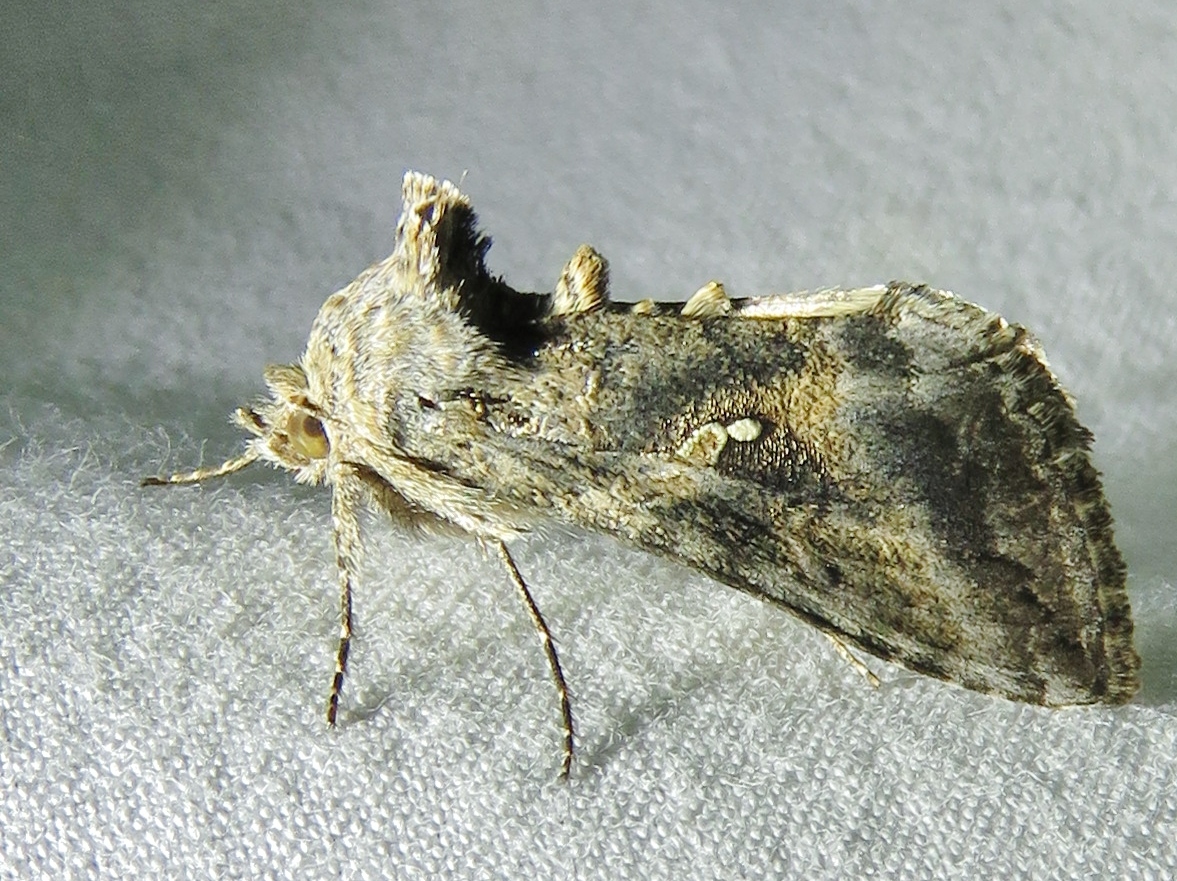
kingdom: Animalia
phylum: Arthropoda
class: Insecta
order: Lepidoptera
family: Noctuidae
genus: Rachiplusia
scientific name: Rachiplusia ou
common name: Gray looper moth
